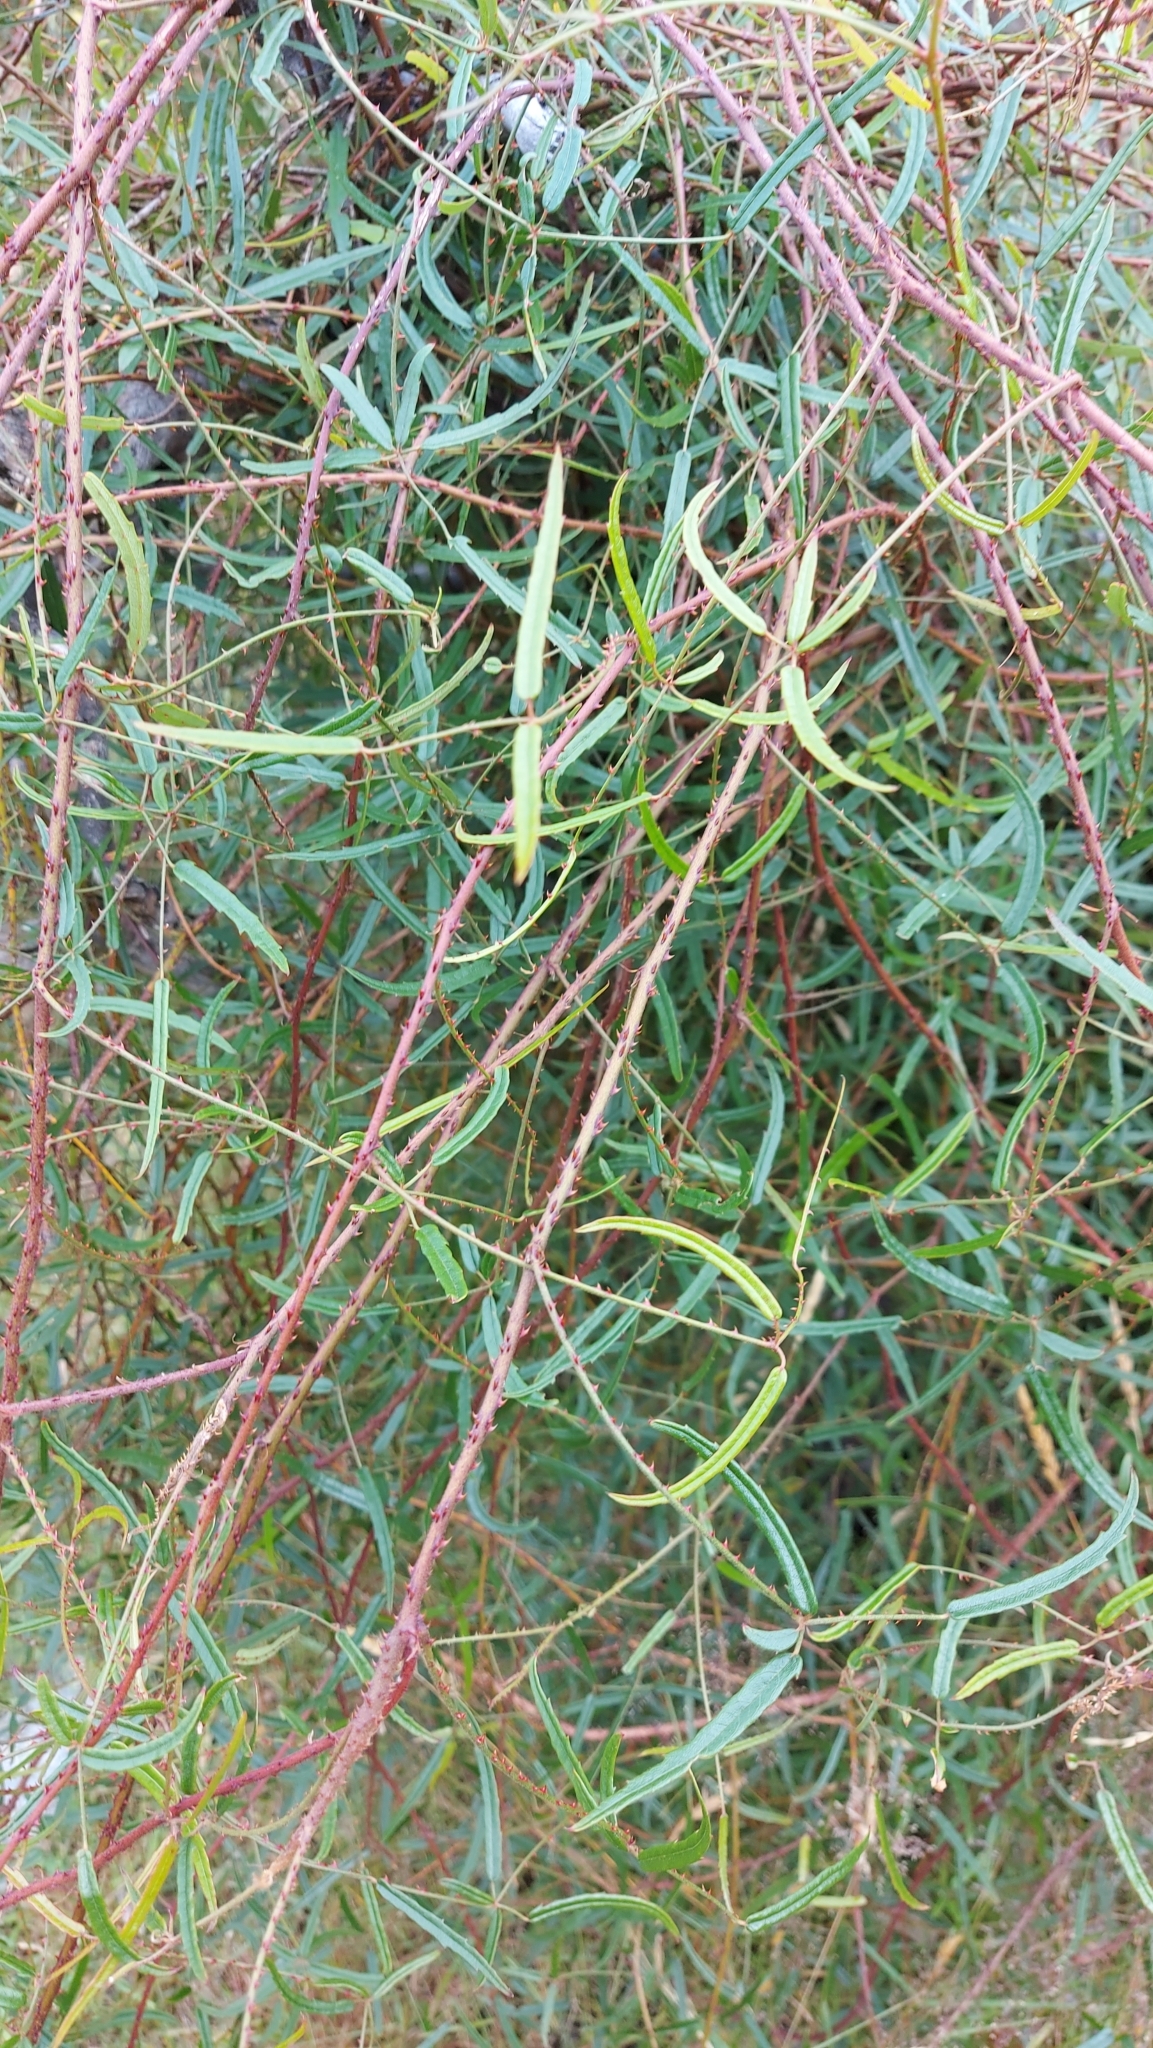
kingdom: Plantae
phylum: Tracheophyta
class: Magnoliopsida
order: Rosales
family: Rosaceae
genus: Rubus
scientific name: Rubus schmidelioides
